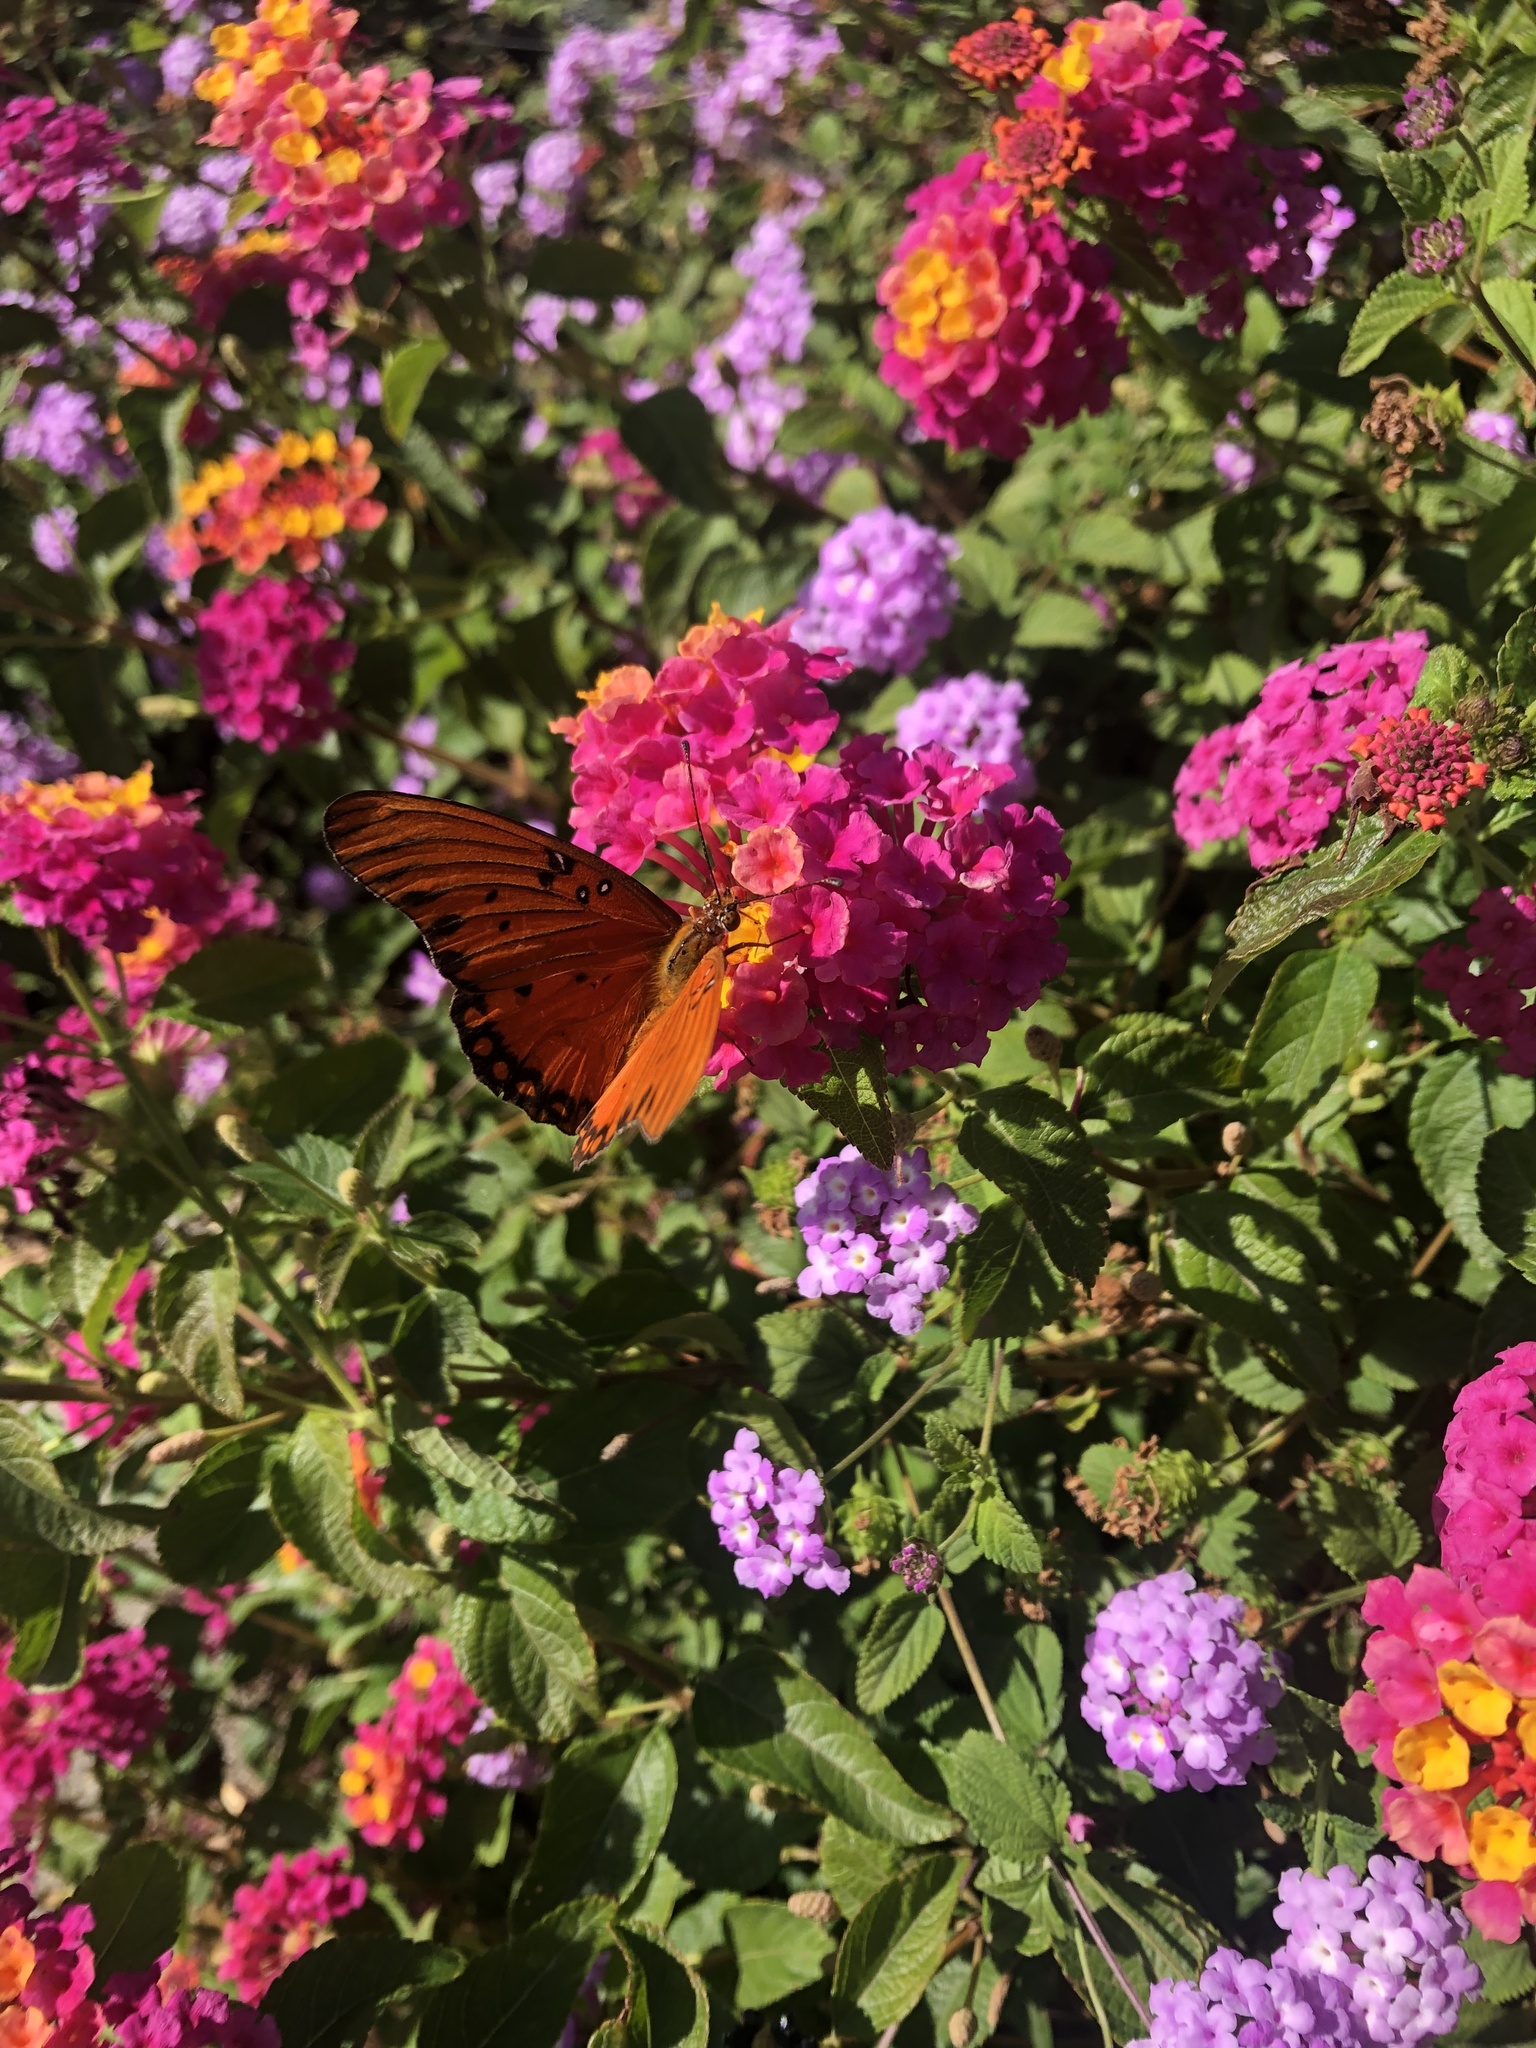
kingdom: Animalia
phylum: Arthropoda
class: Insecta
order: Lepidoptera
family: Nymphalidae
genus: Dione
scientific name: Dione vanillae
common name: Gulf fritillary
